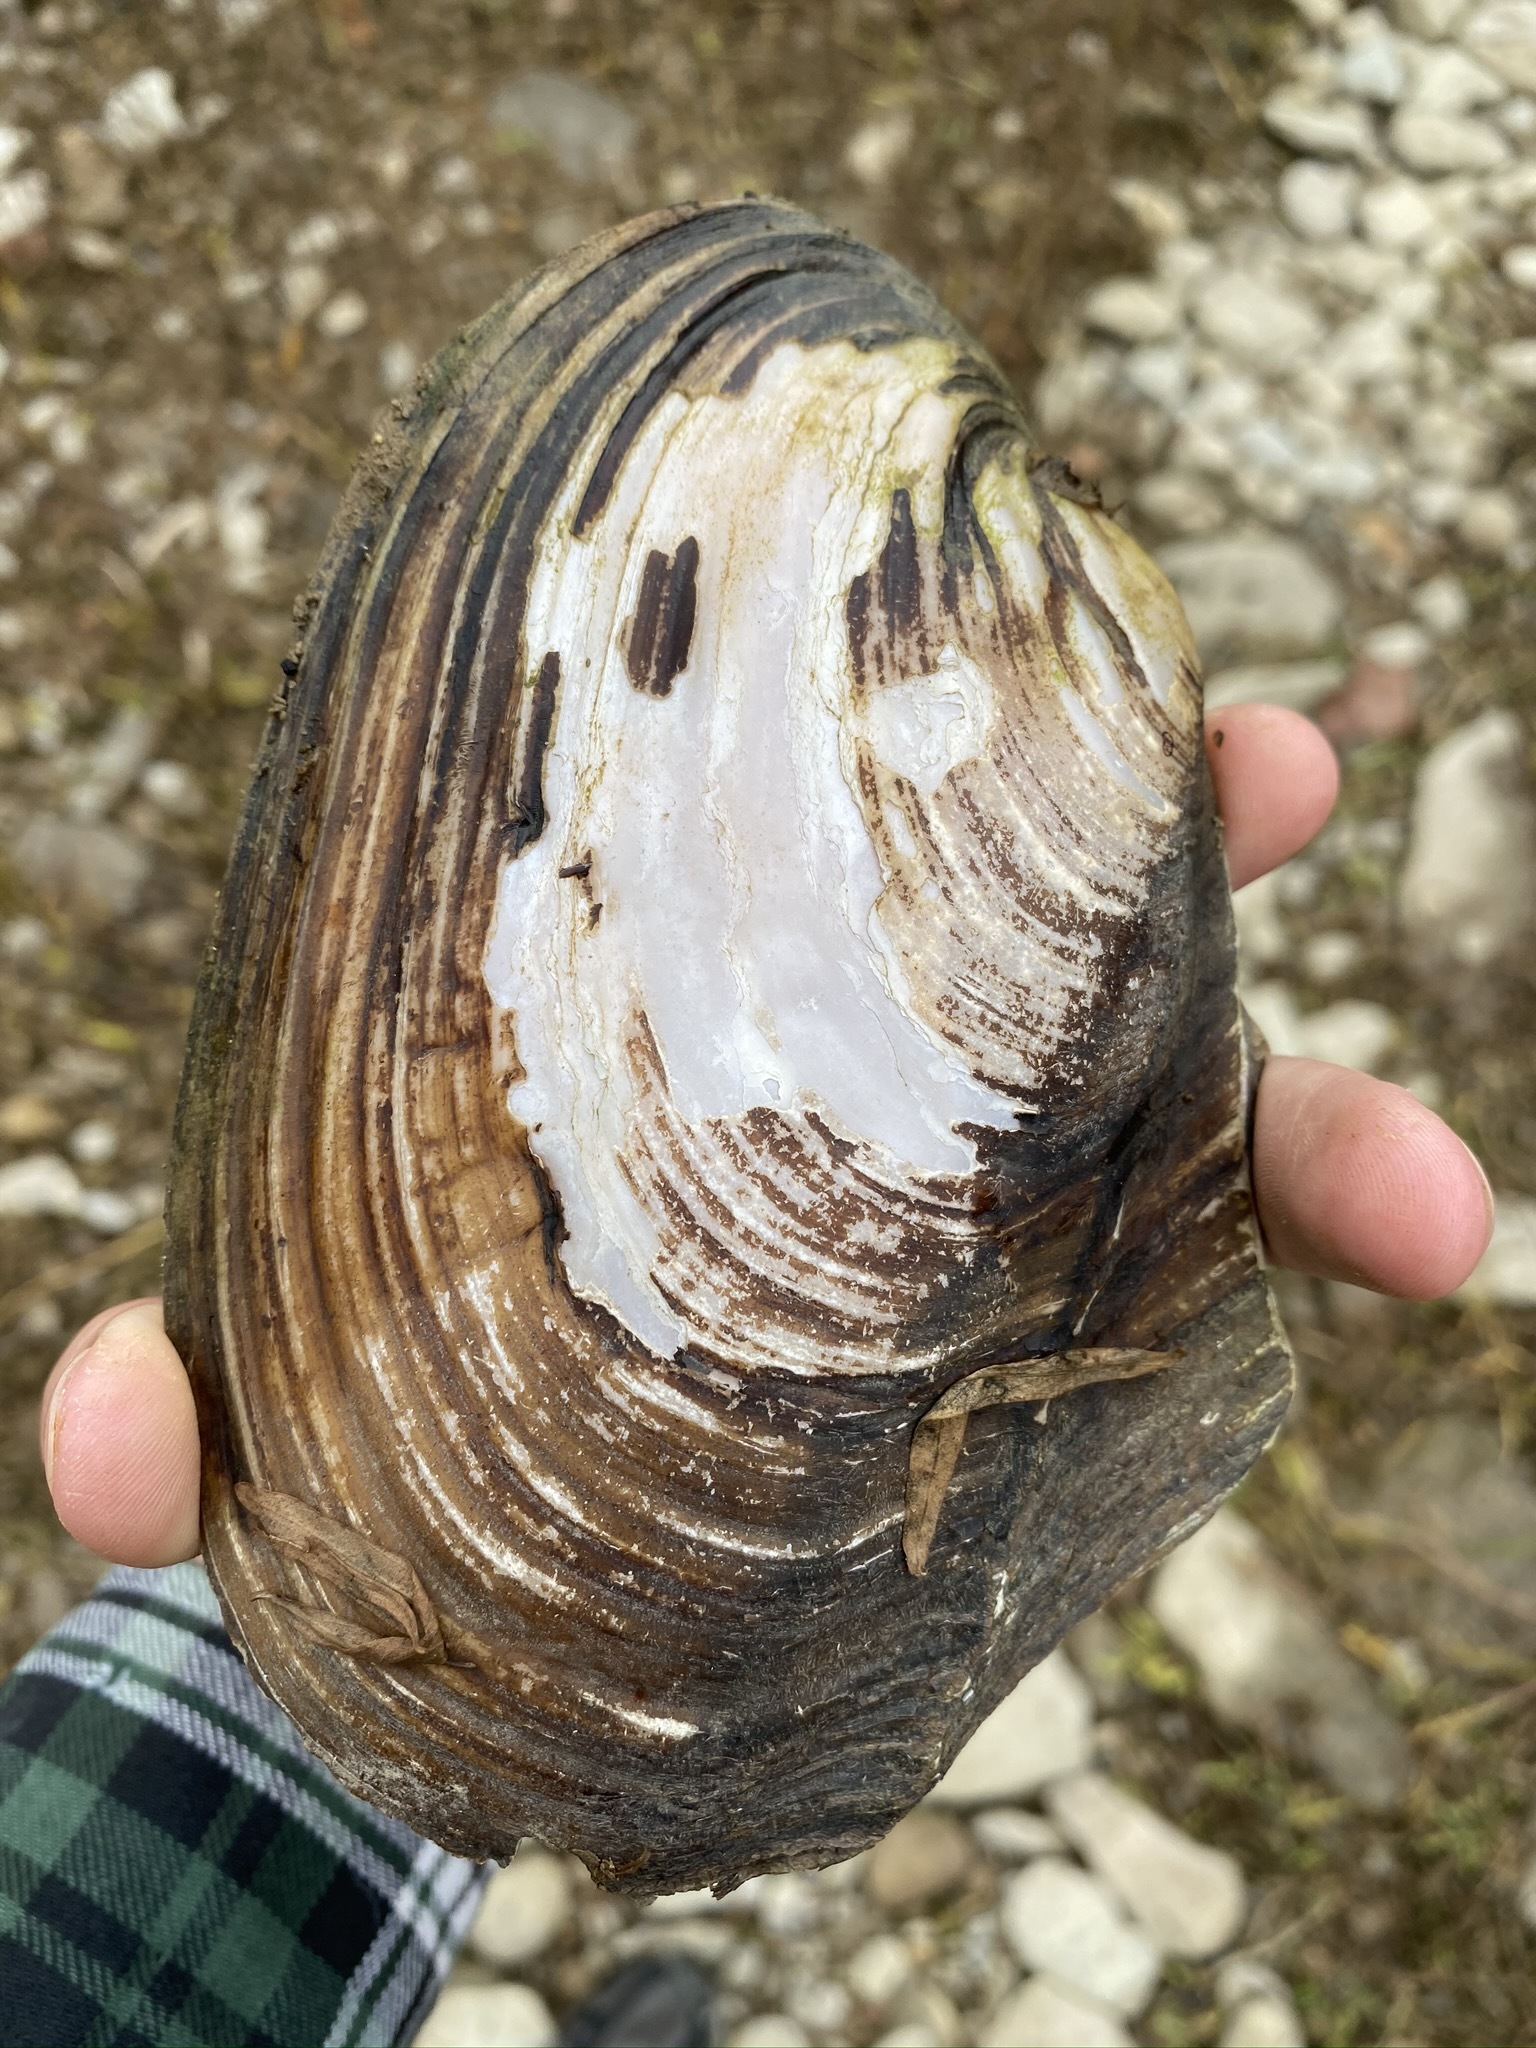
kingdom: Animalia
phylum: Mollusca
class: Bivalvia
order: Unionida
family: Unionidae
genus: Potamilus
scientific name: Potamilus alatus
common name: Pink heelsplitter
